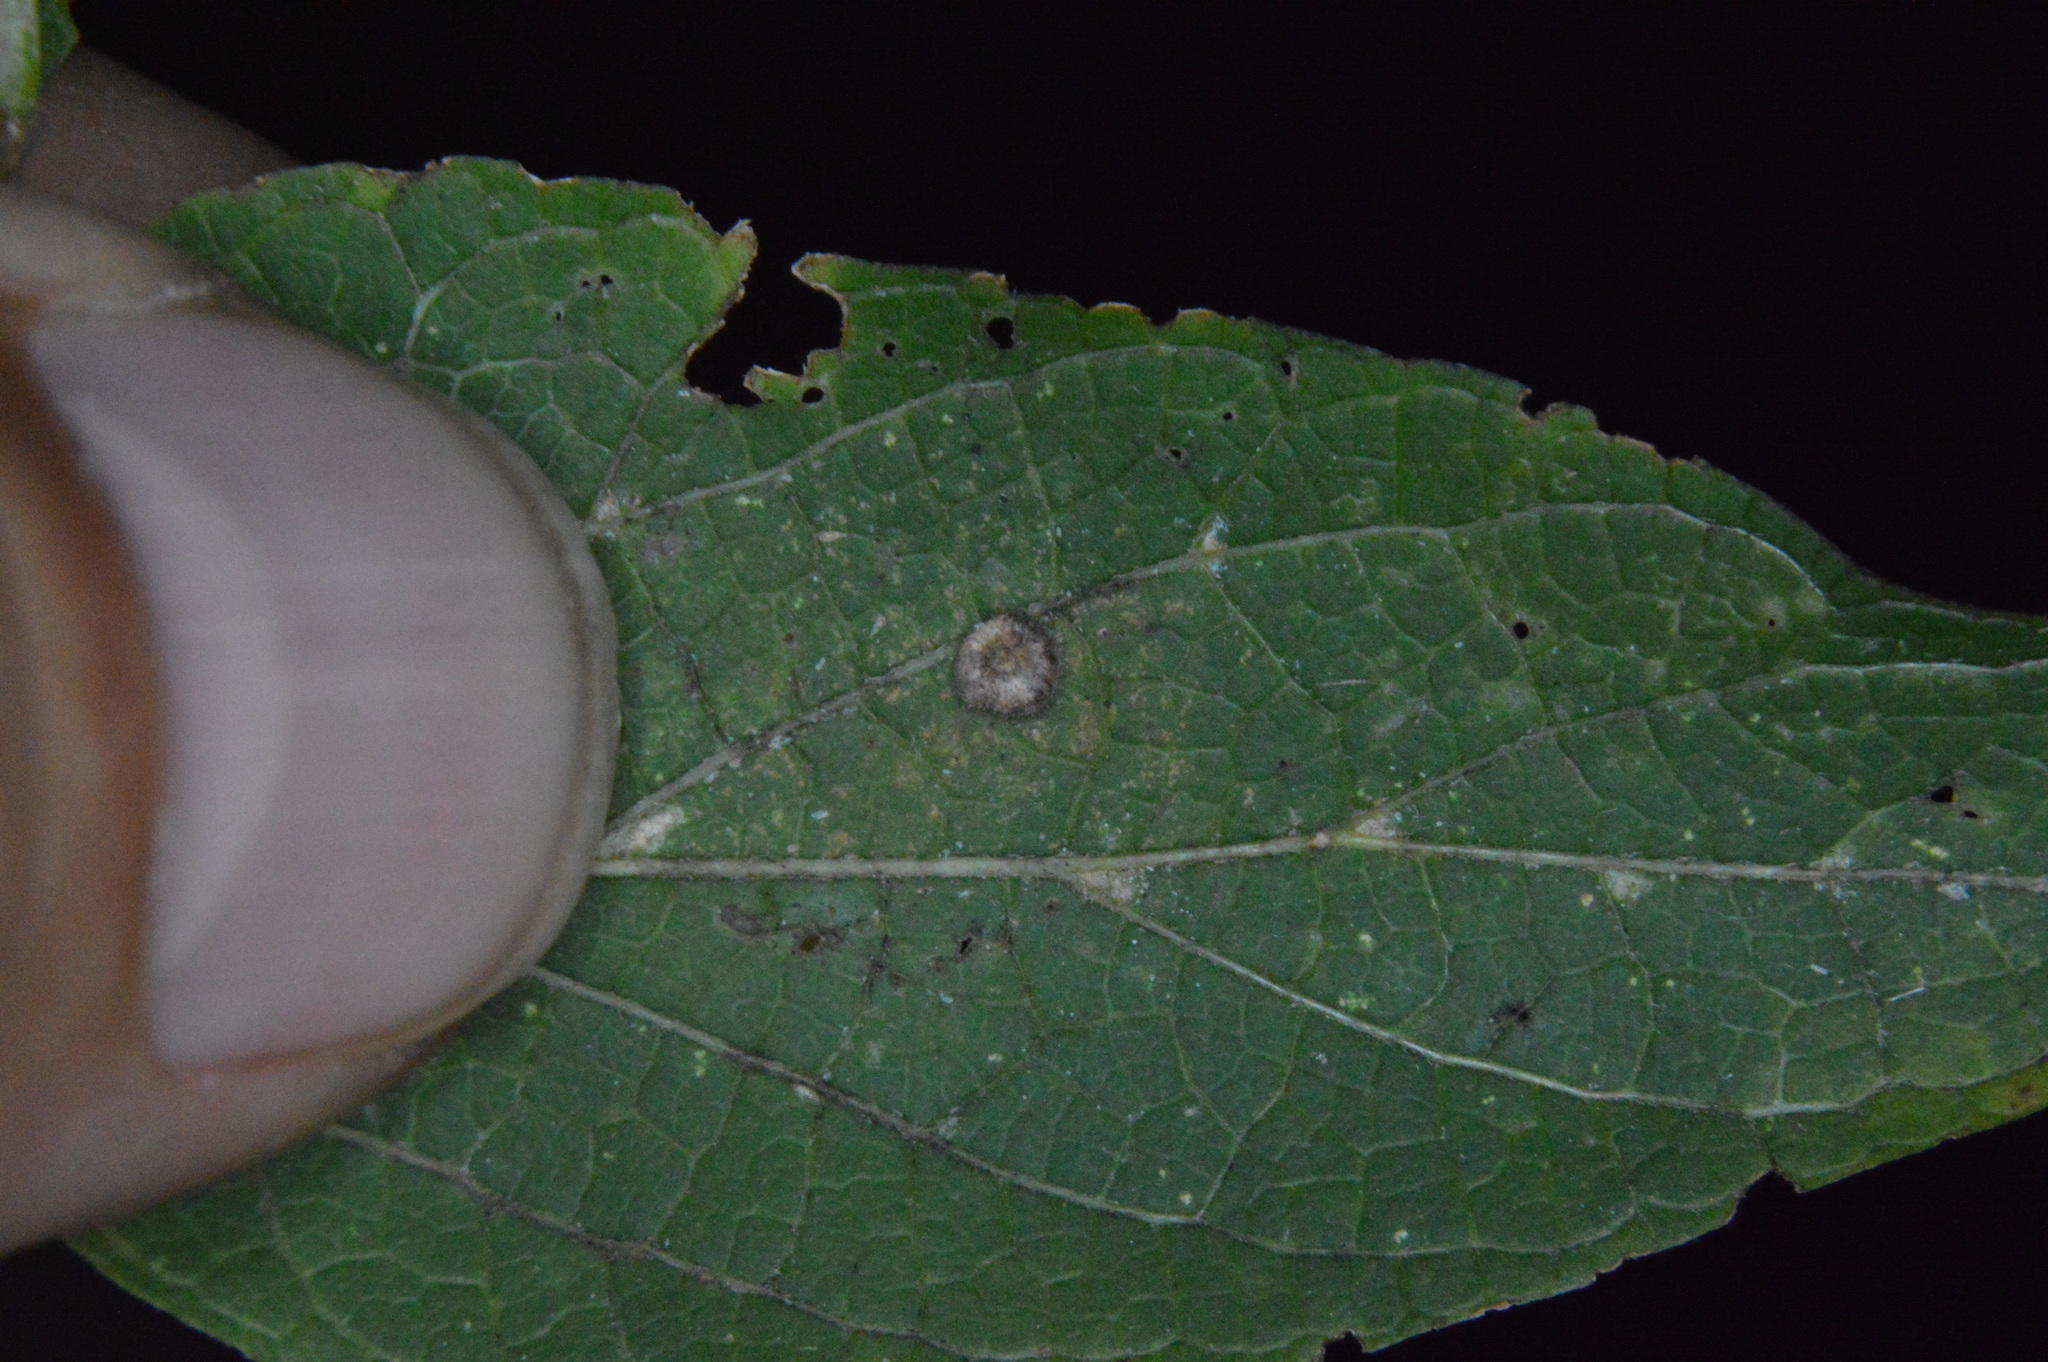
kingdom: Animalia
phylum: Arthropoda
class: Insecta
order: Diptera
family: Cecidomyiidae
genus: Celticecis
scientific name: Celticecis capsularis
